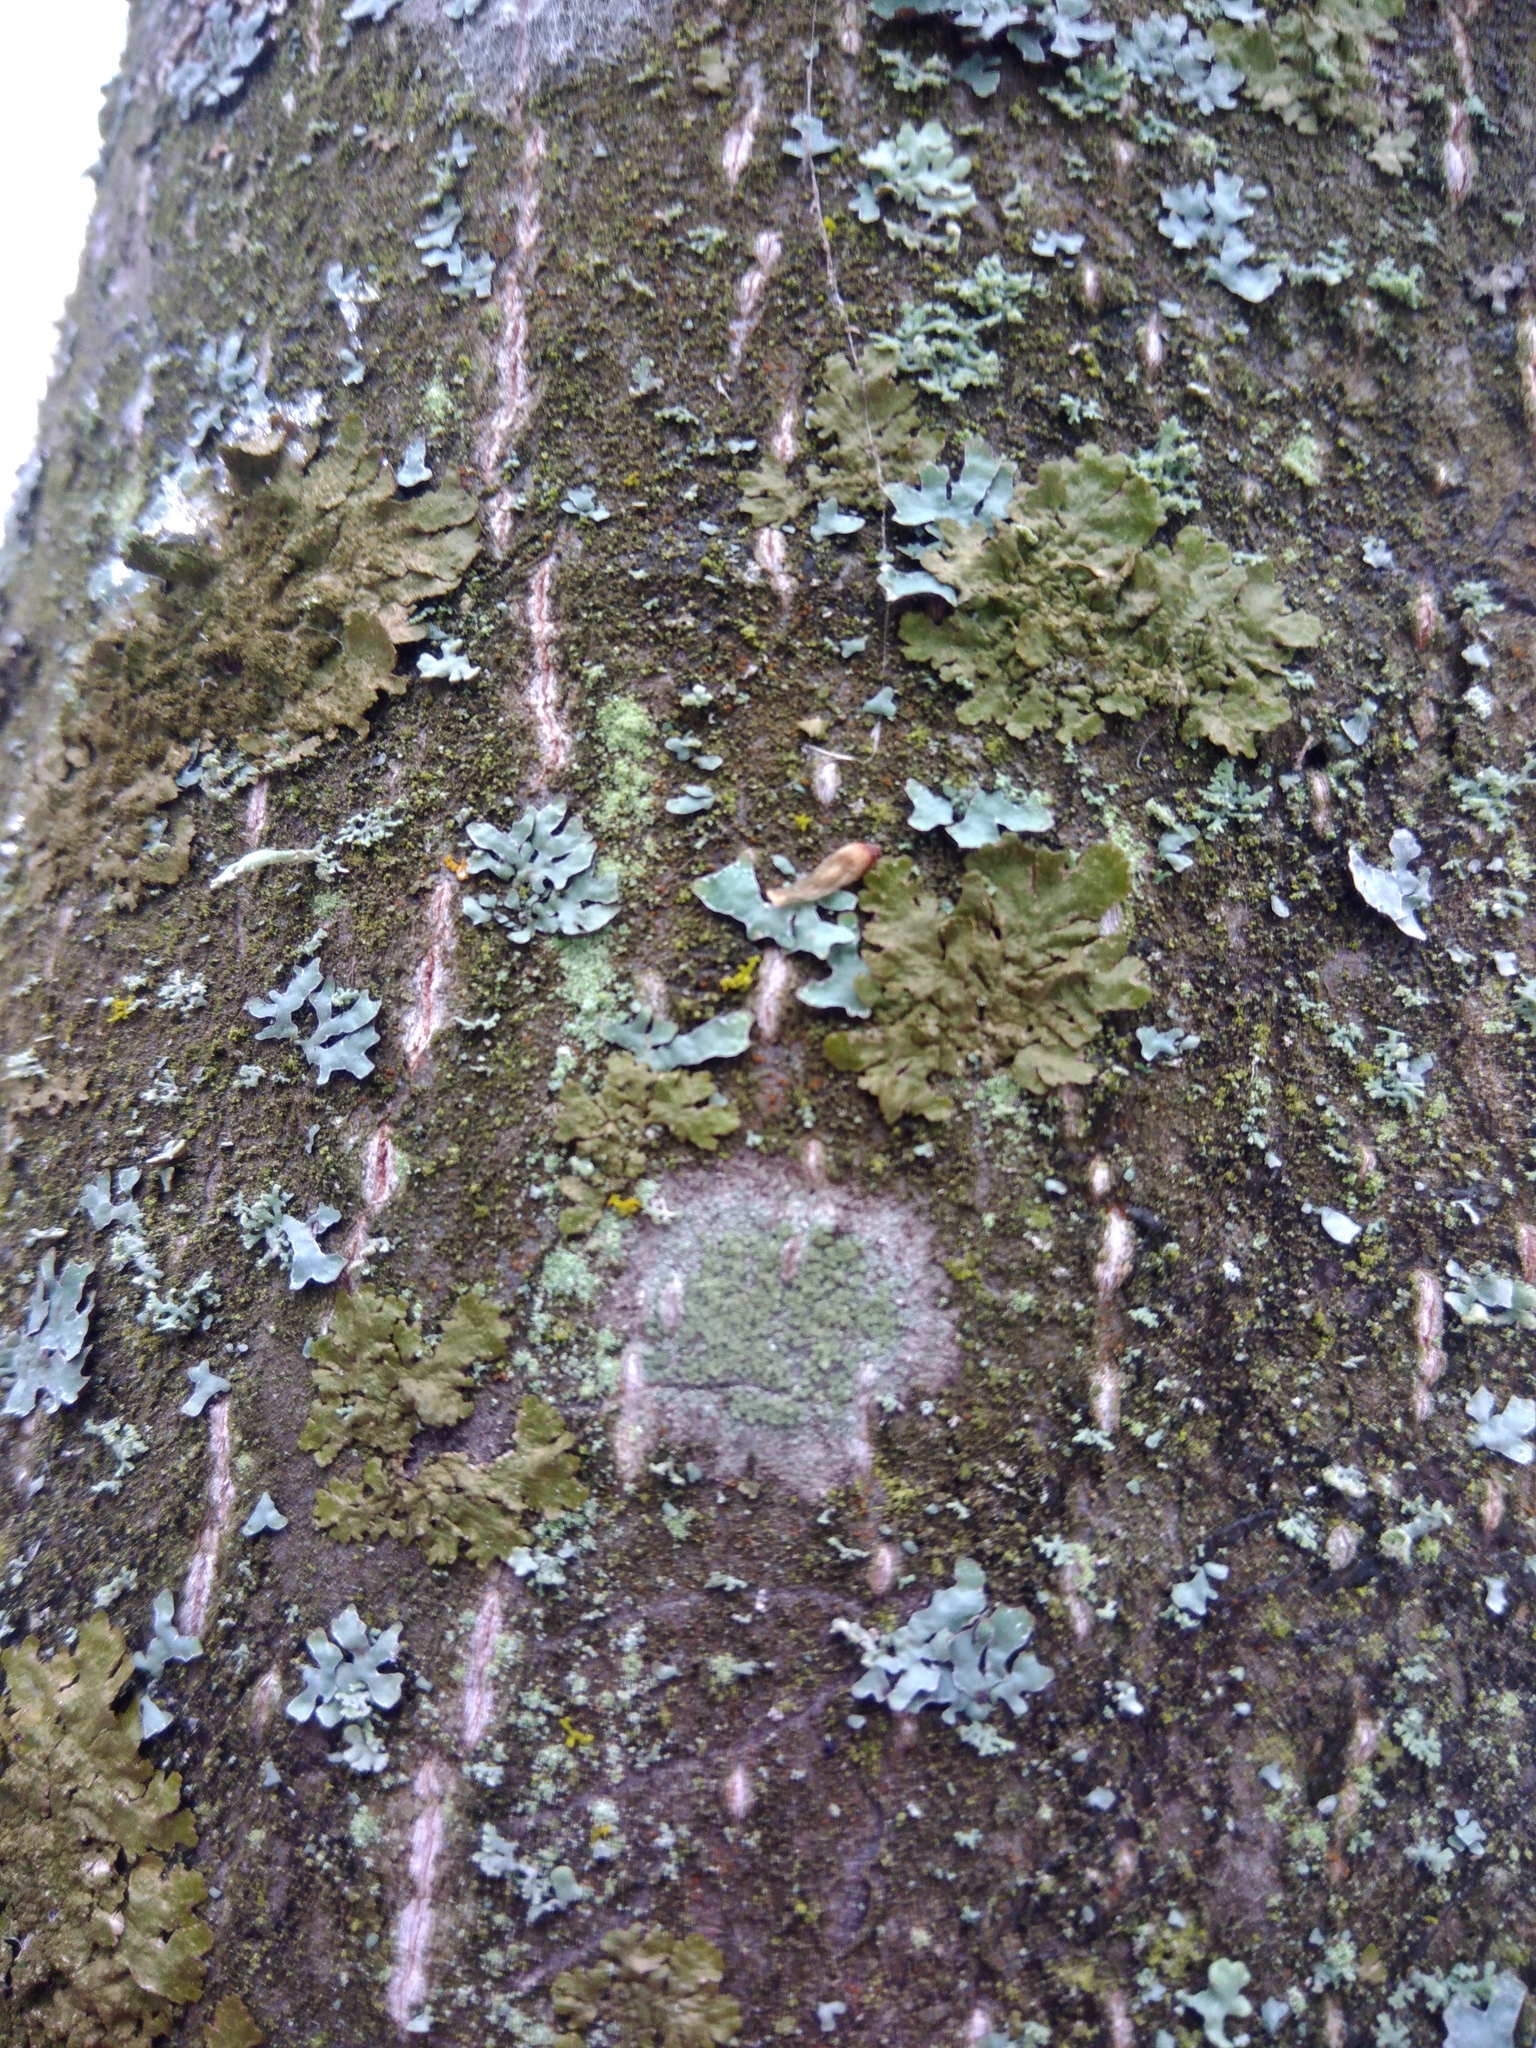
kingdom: Fungi
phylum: Ascomycota
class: Lecanoromycetes
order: Caliciales
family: Caliciaceae
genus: Buellia
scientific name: Buellia griseovirens
